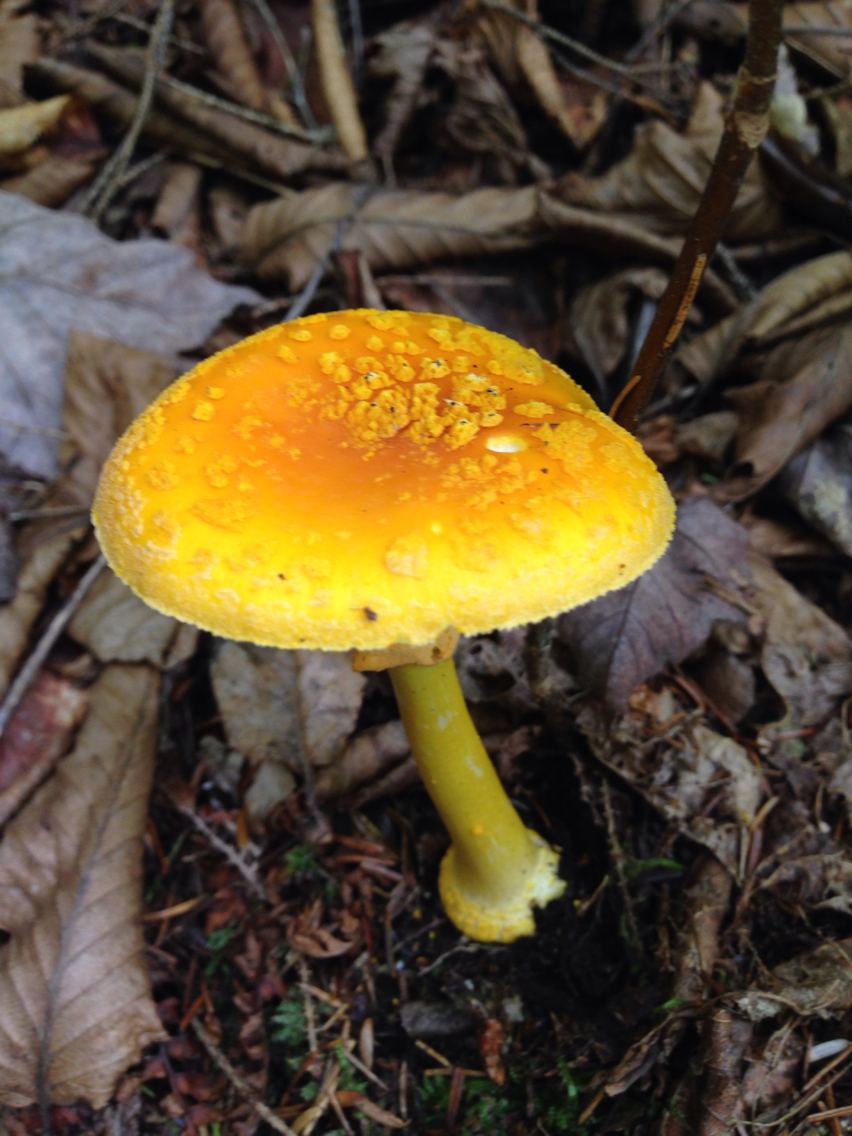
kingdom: Fungi
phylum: Basidiomycota
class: Agaricomycetes
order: Agaricales
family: Amanitaceae
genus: Amanita
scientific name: Amanita flavoconia
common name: Yellow patches
